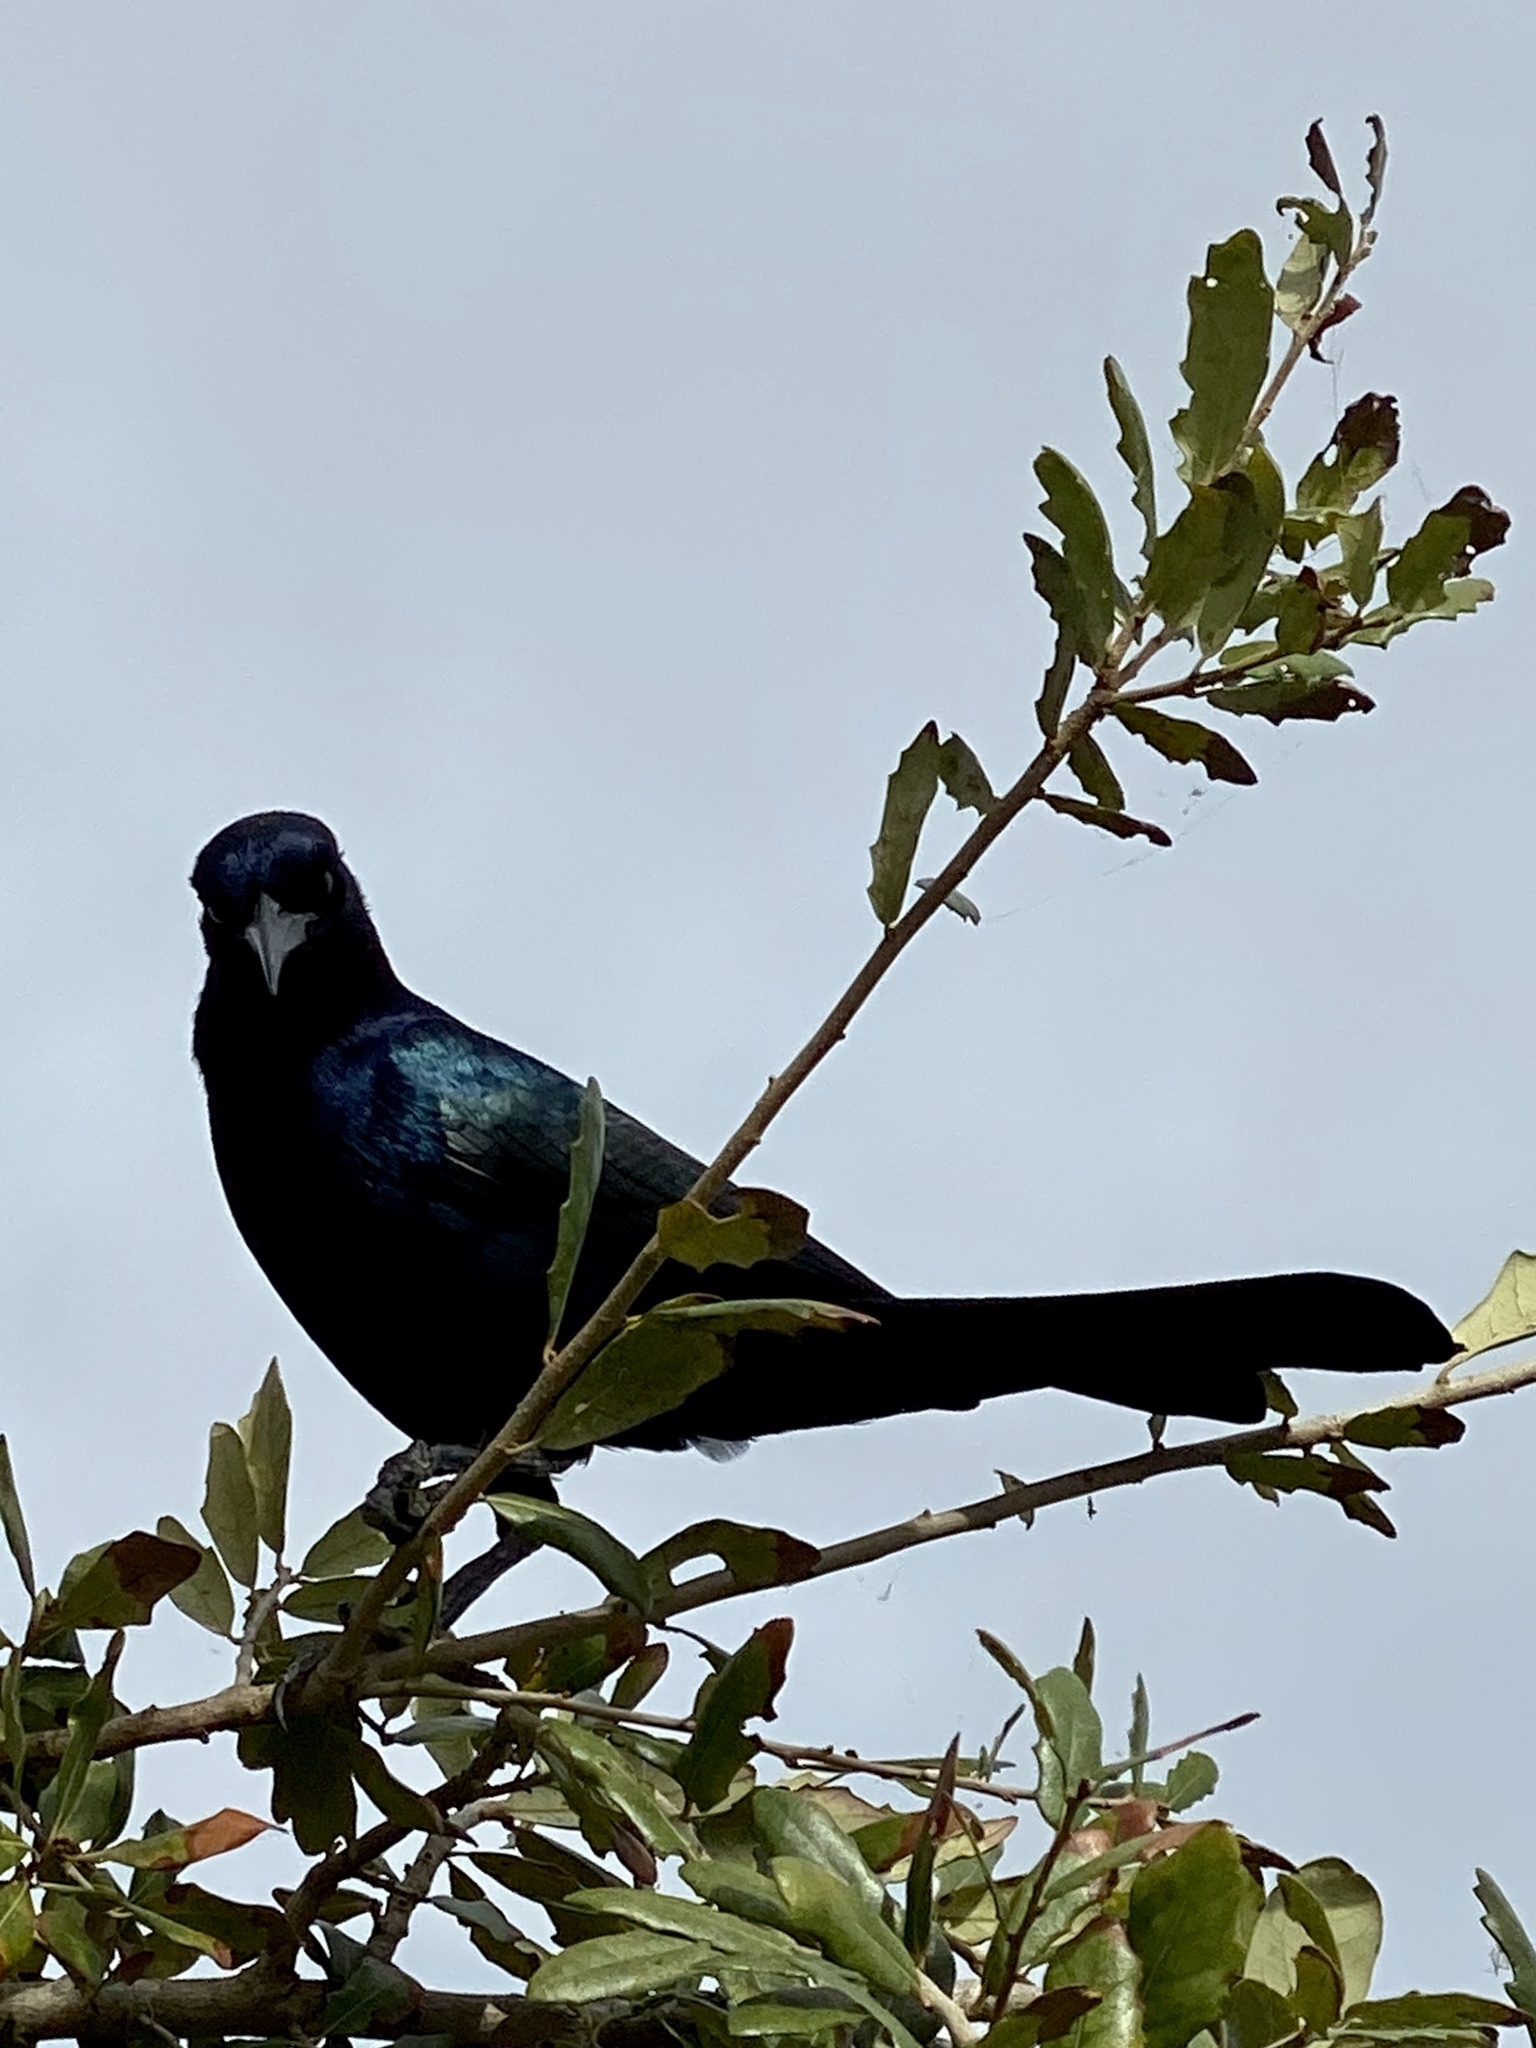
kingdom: Animalia
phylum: Chordata
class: Aves
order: Passeriformes
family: Icteridae
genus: Quiscalus
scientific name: Quiscalus major
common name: Boat-tailed grackle
